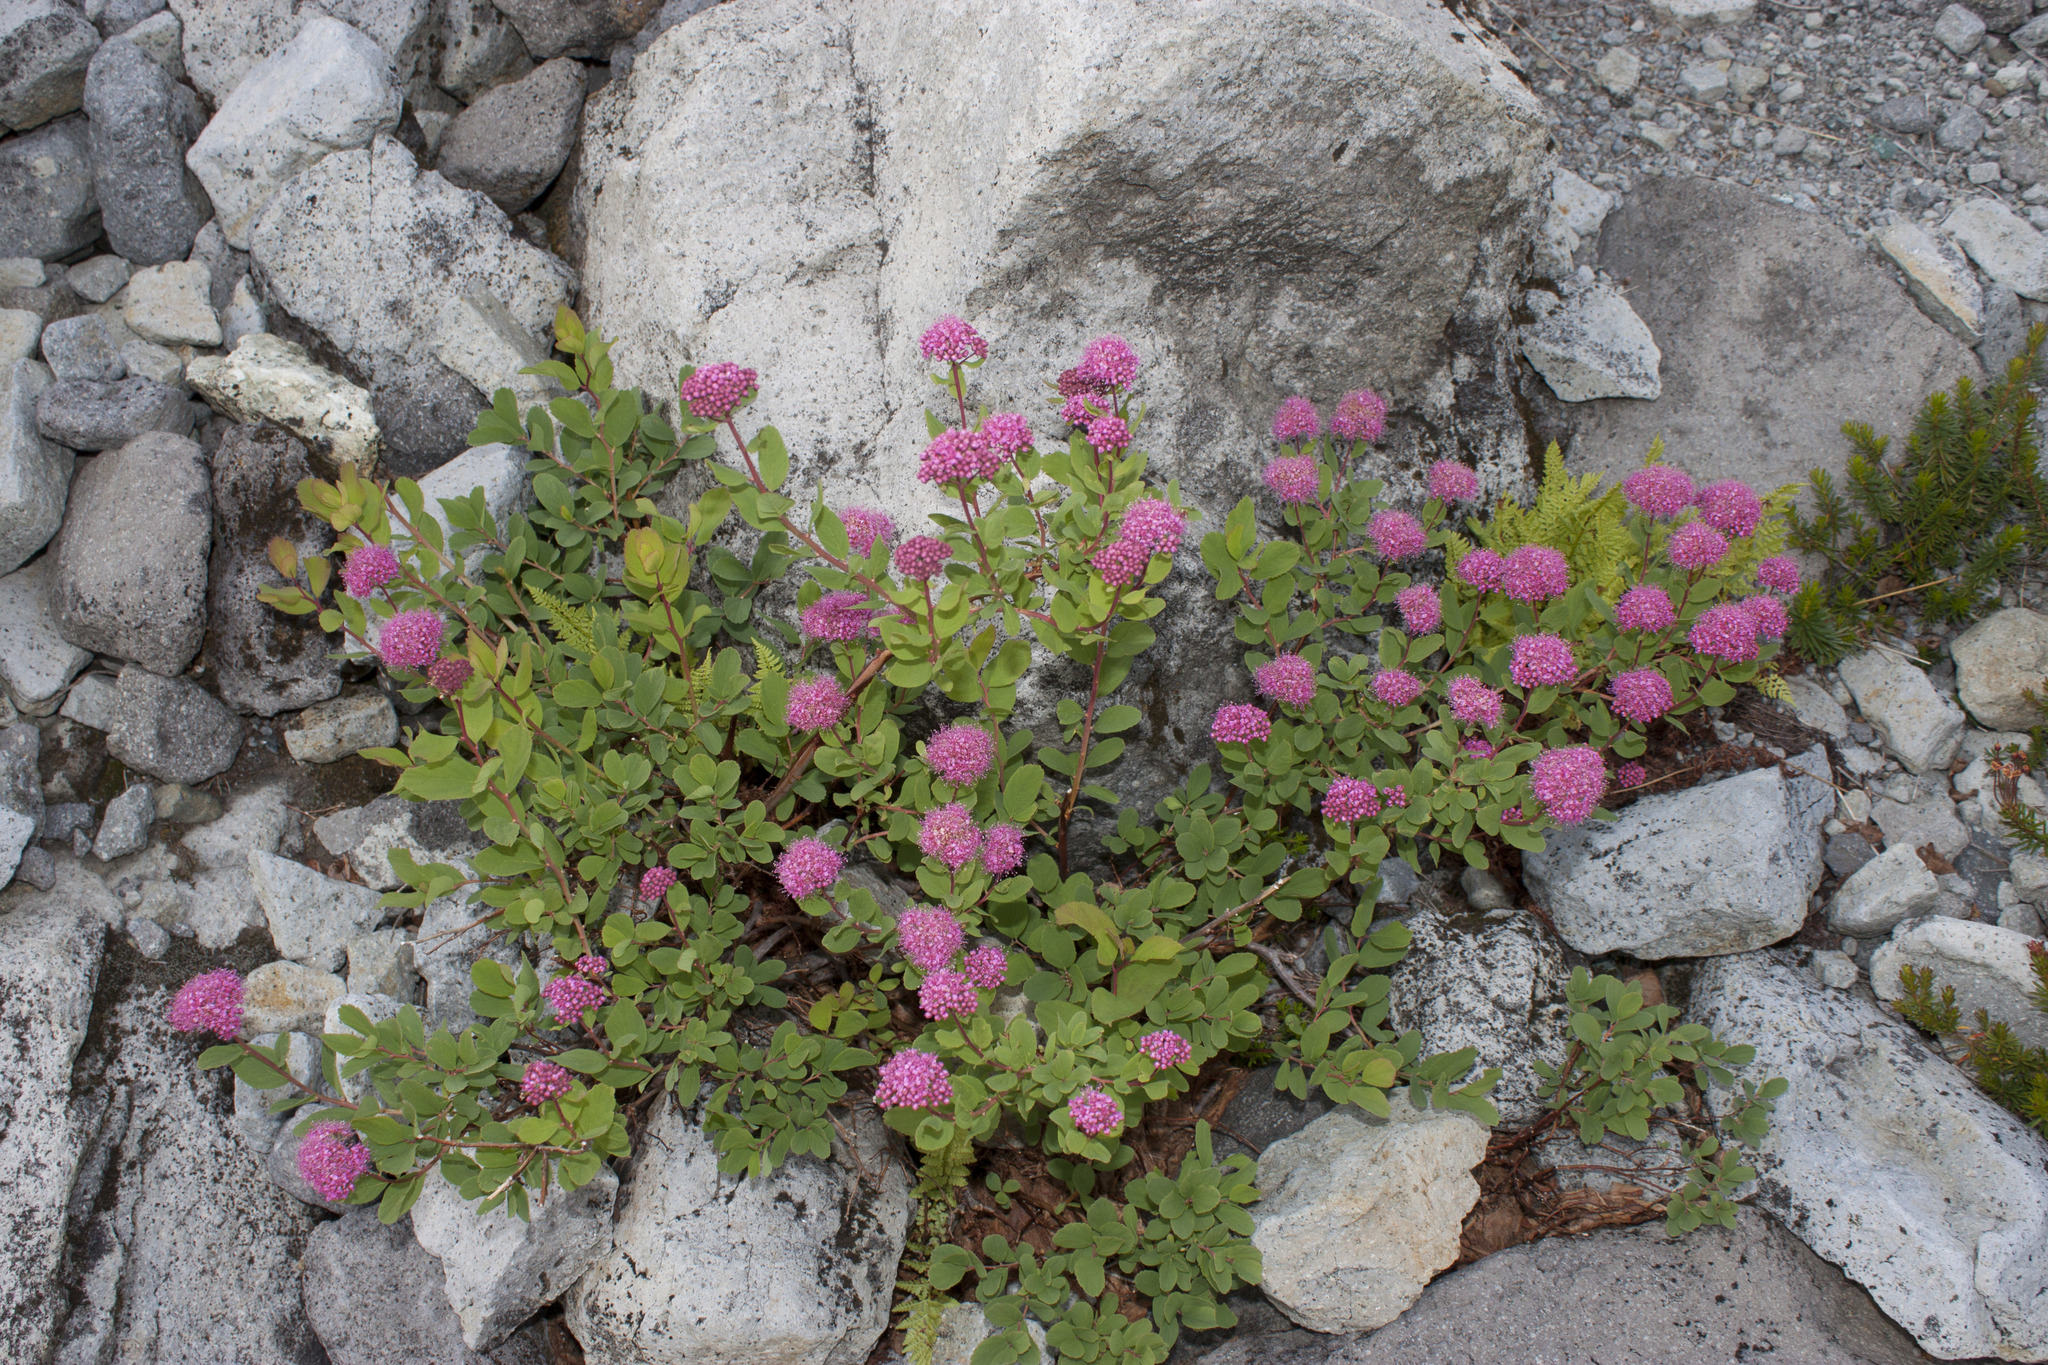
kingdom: Plantae
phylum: Tracheophyta
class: Magnoliopsida
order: Rosales
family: Rosaceae
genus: Spiraea
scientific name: Spiraea splendens
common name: Subalpine meadowsweet
